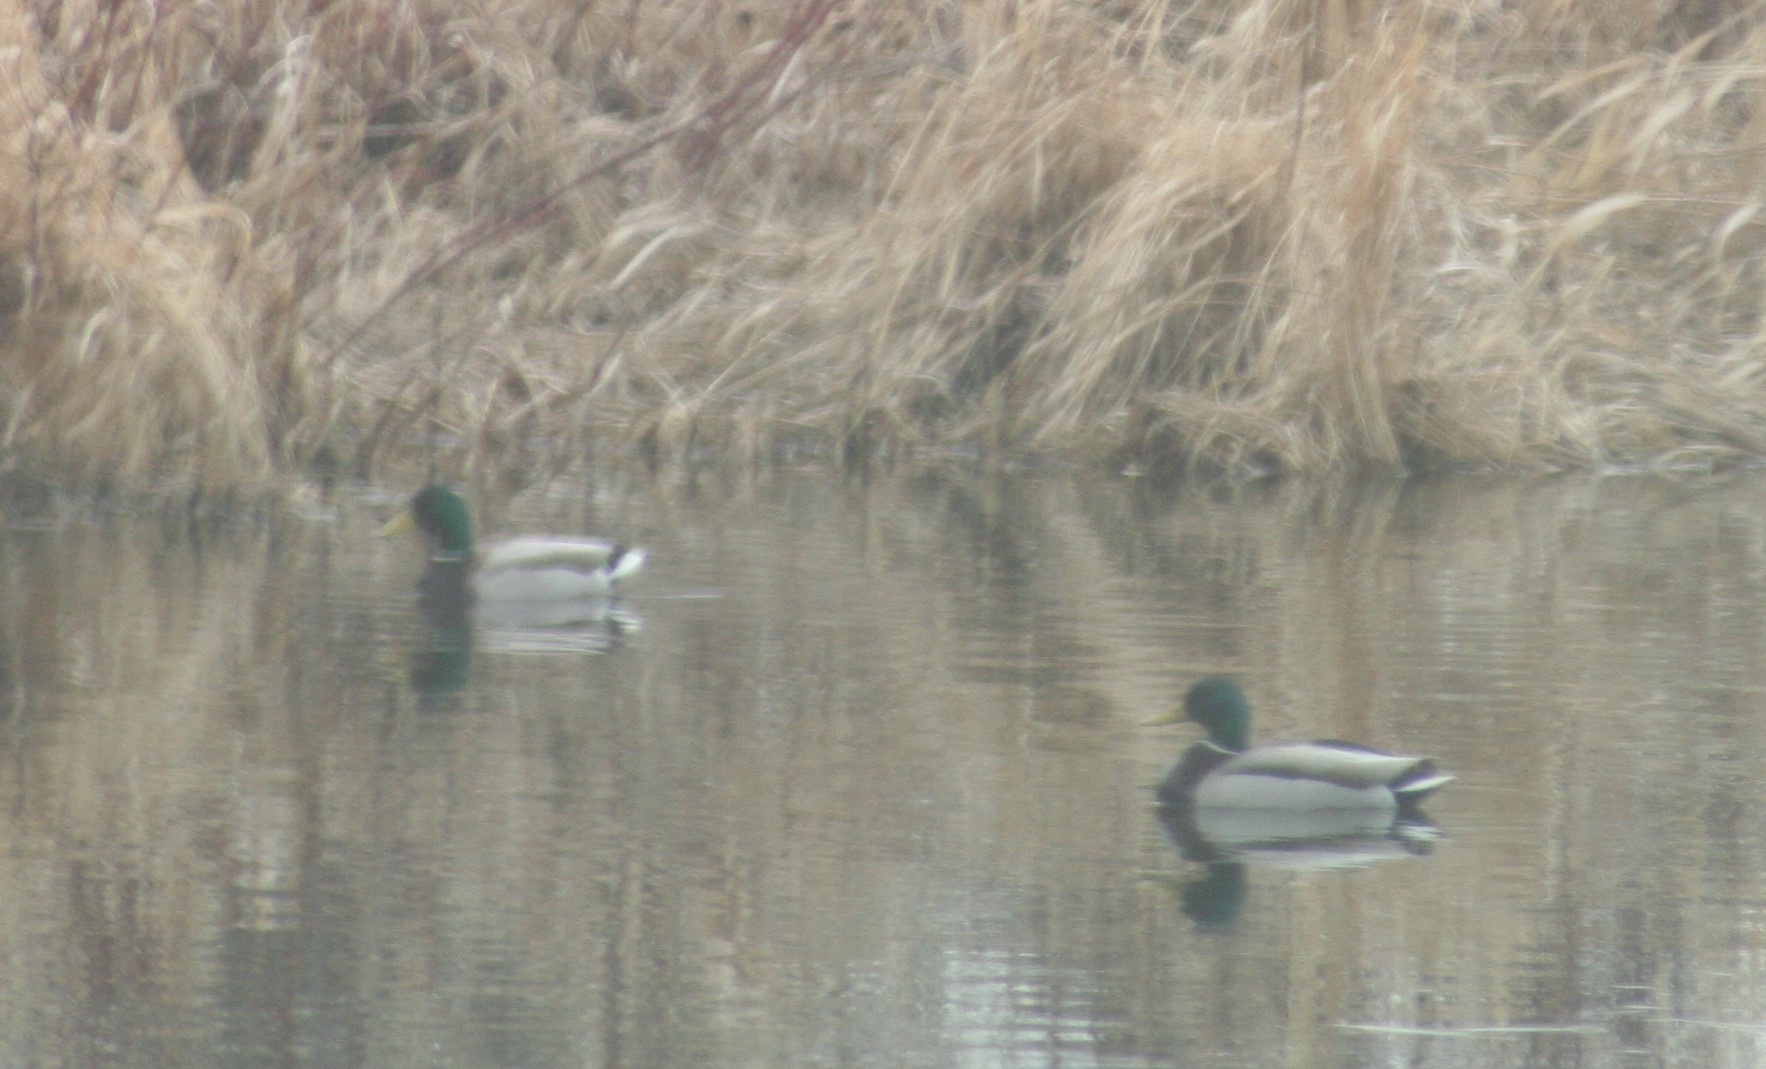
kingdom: Animalia
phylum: Chordata
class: Aves
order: Anseriformes
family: Anatidae
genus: Anas
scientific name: Anas platyrhynchos
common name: Mallard
